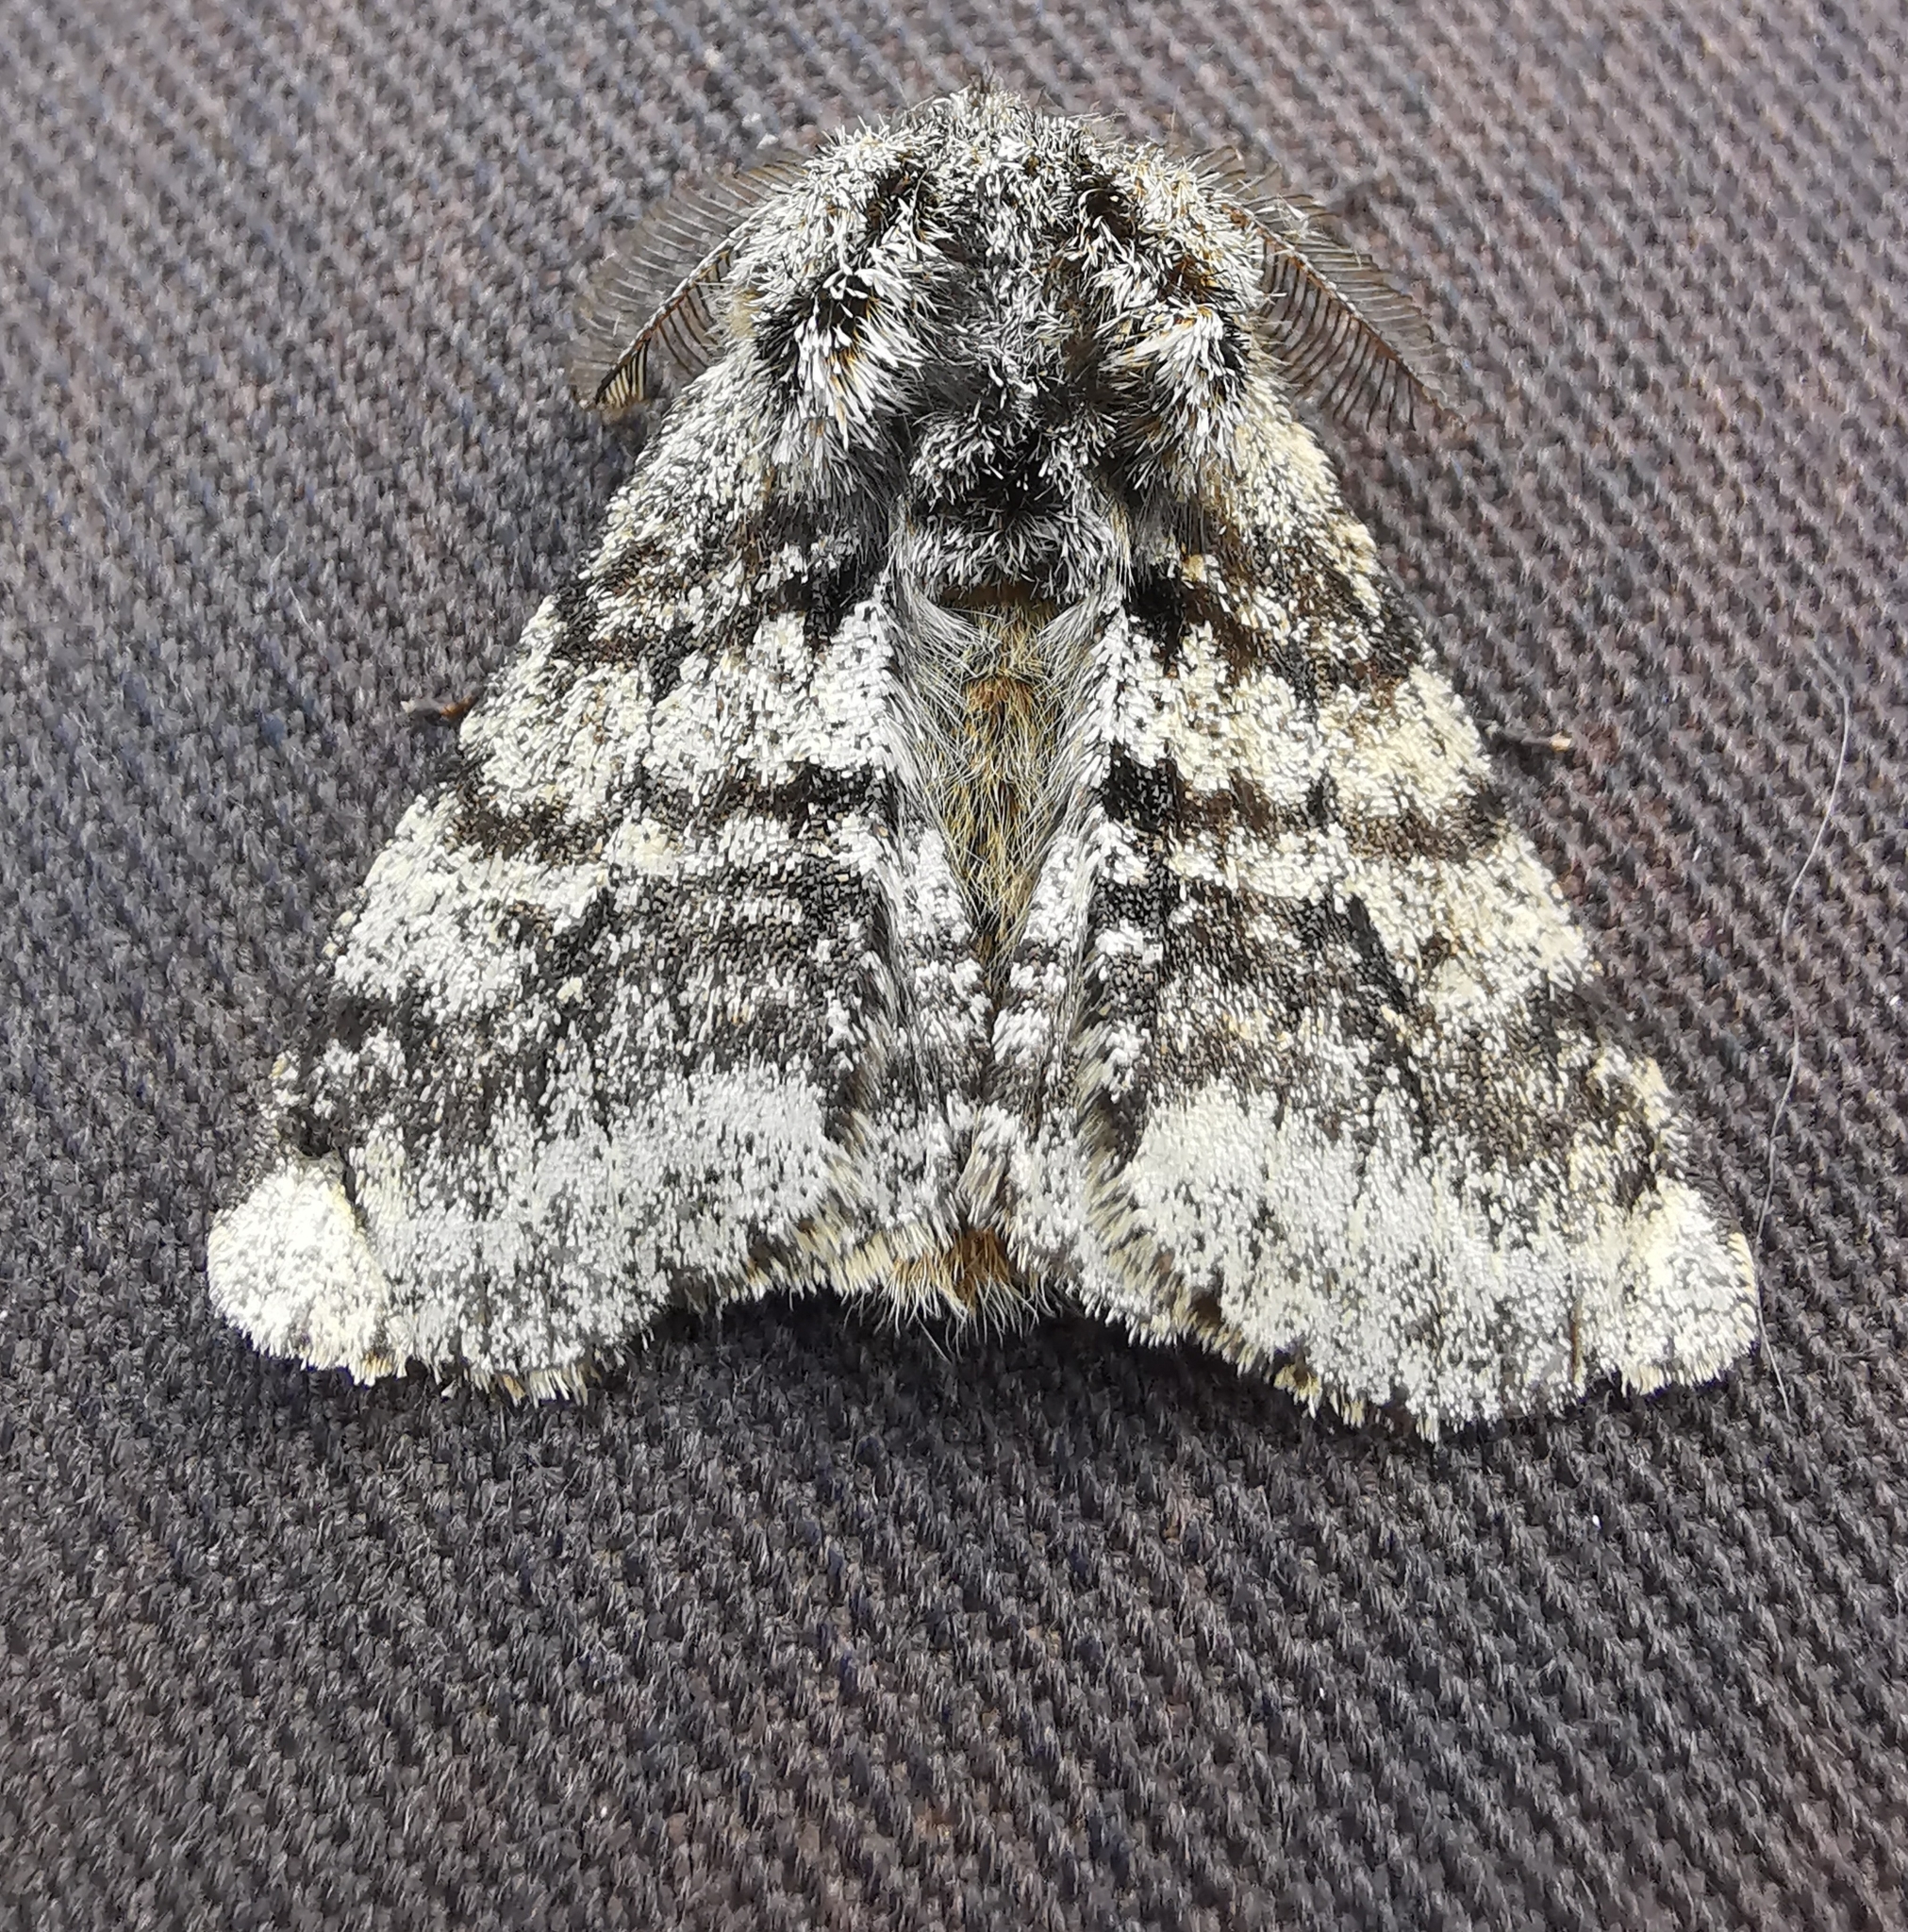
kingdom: Animalia
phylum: Arthropoda
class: Insecta
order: Lepidoptera
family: Geometridae
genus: Lycia
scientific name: Lycia hirtaria
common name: Brindled beauty
